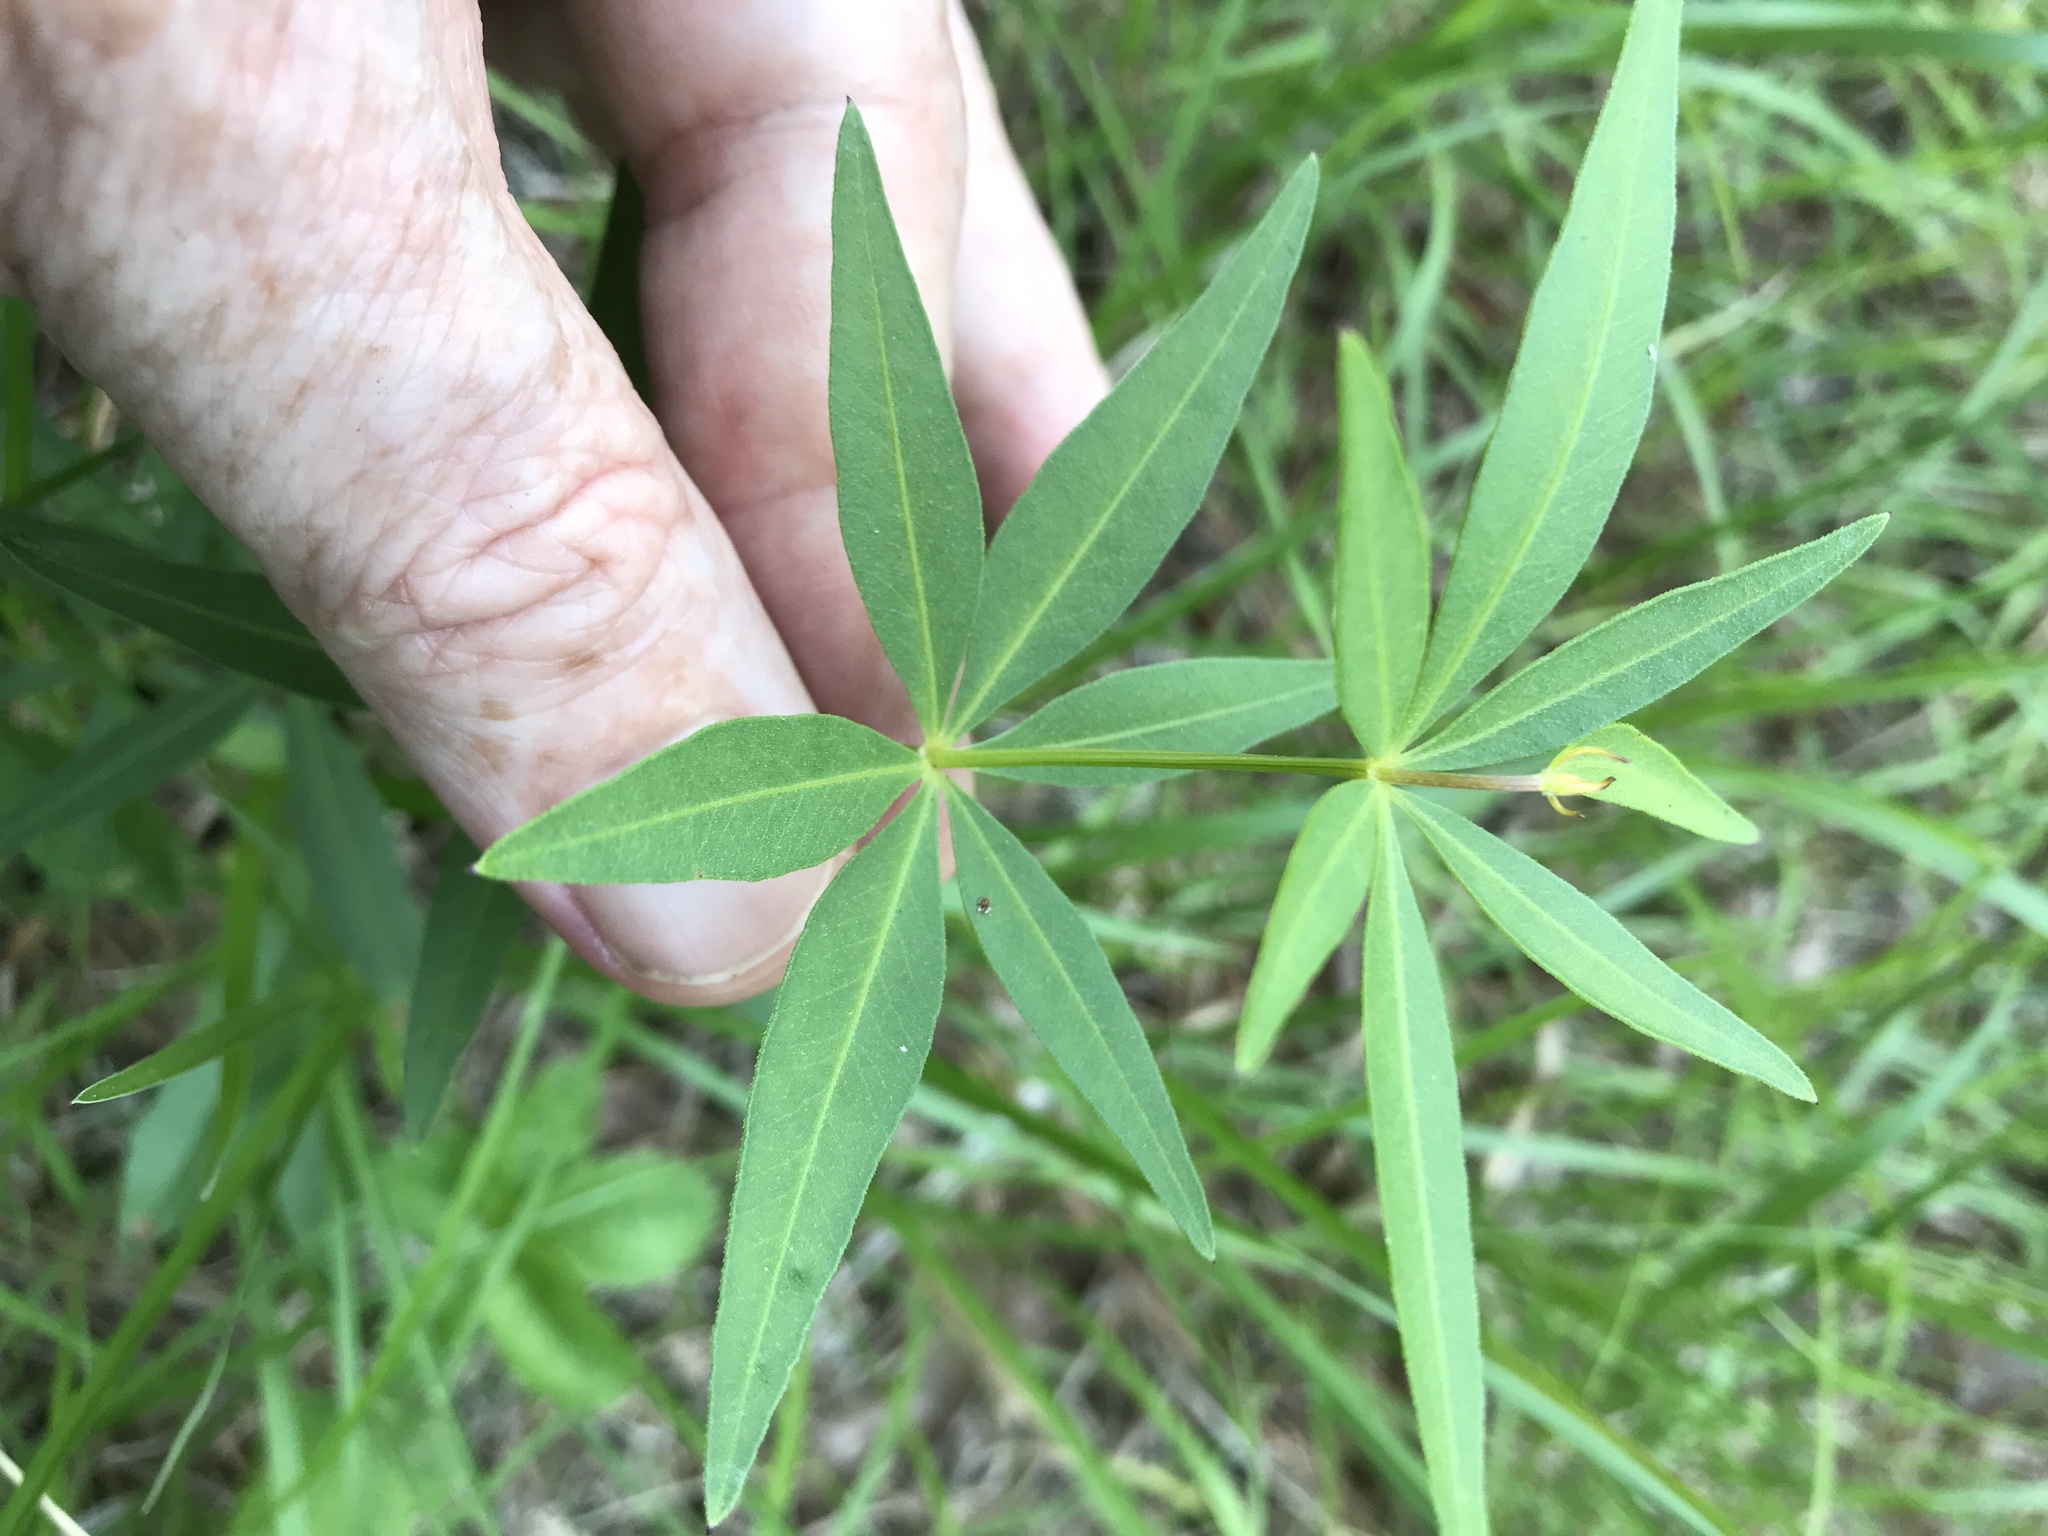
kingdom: Plantae
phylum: Tracheophyta
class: Magnoliopsida
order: Asterales
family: Asteraceae
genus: Coreopsis
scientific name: Coreopsis major
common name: Forest tickseed
